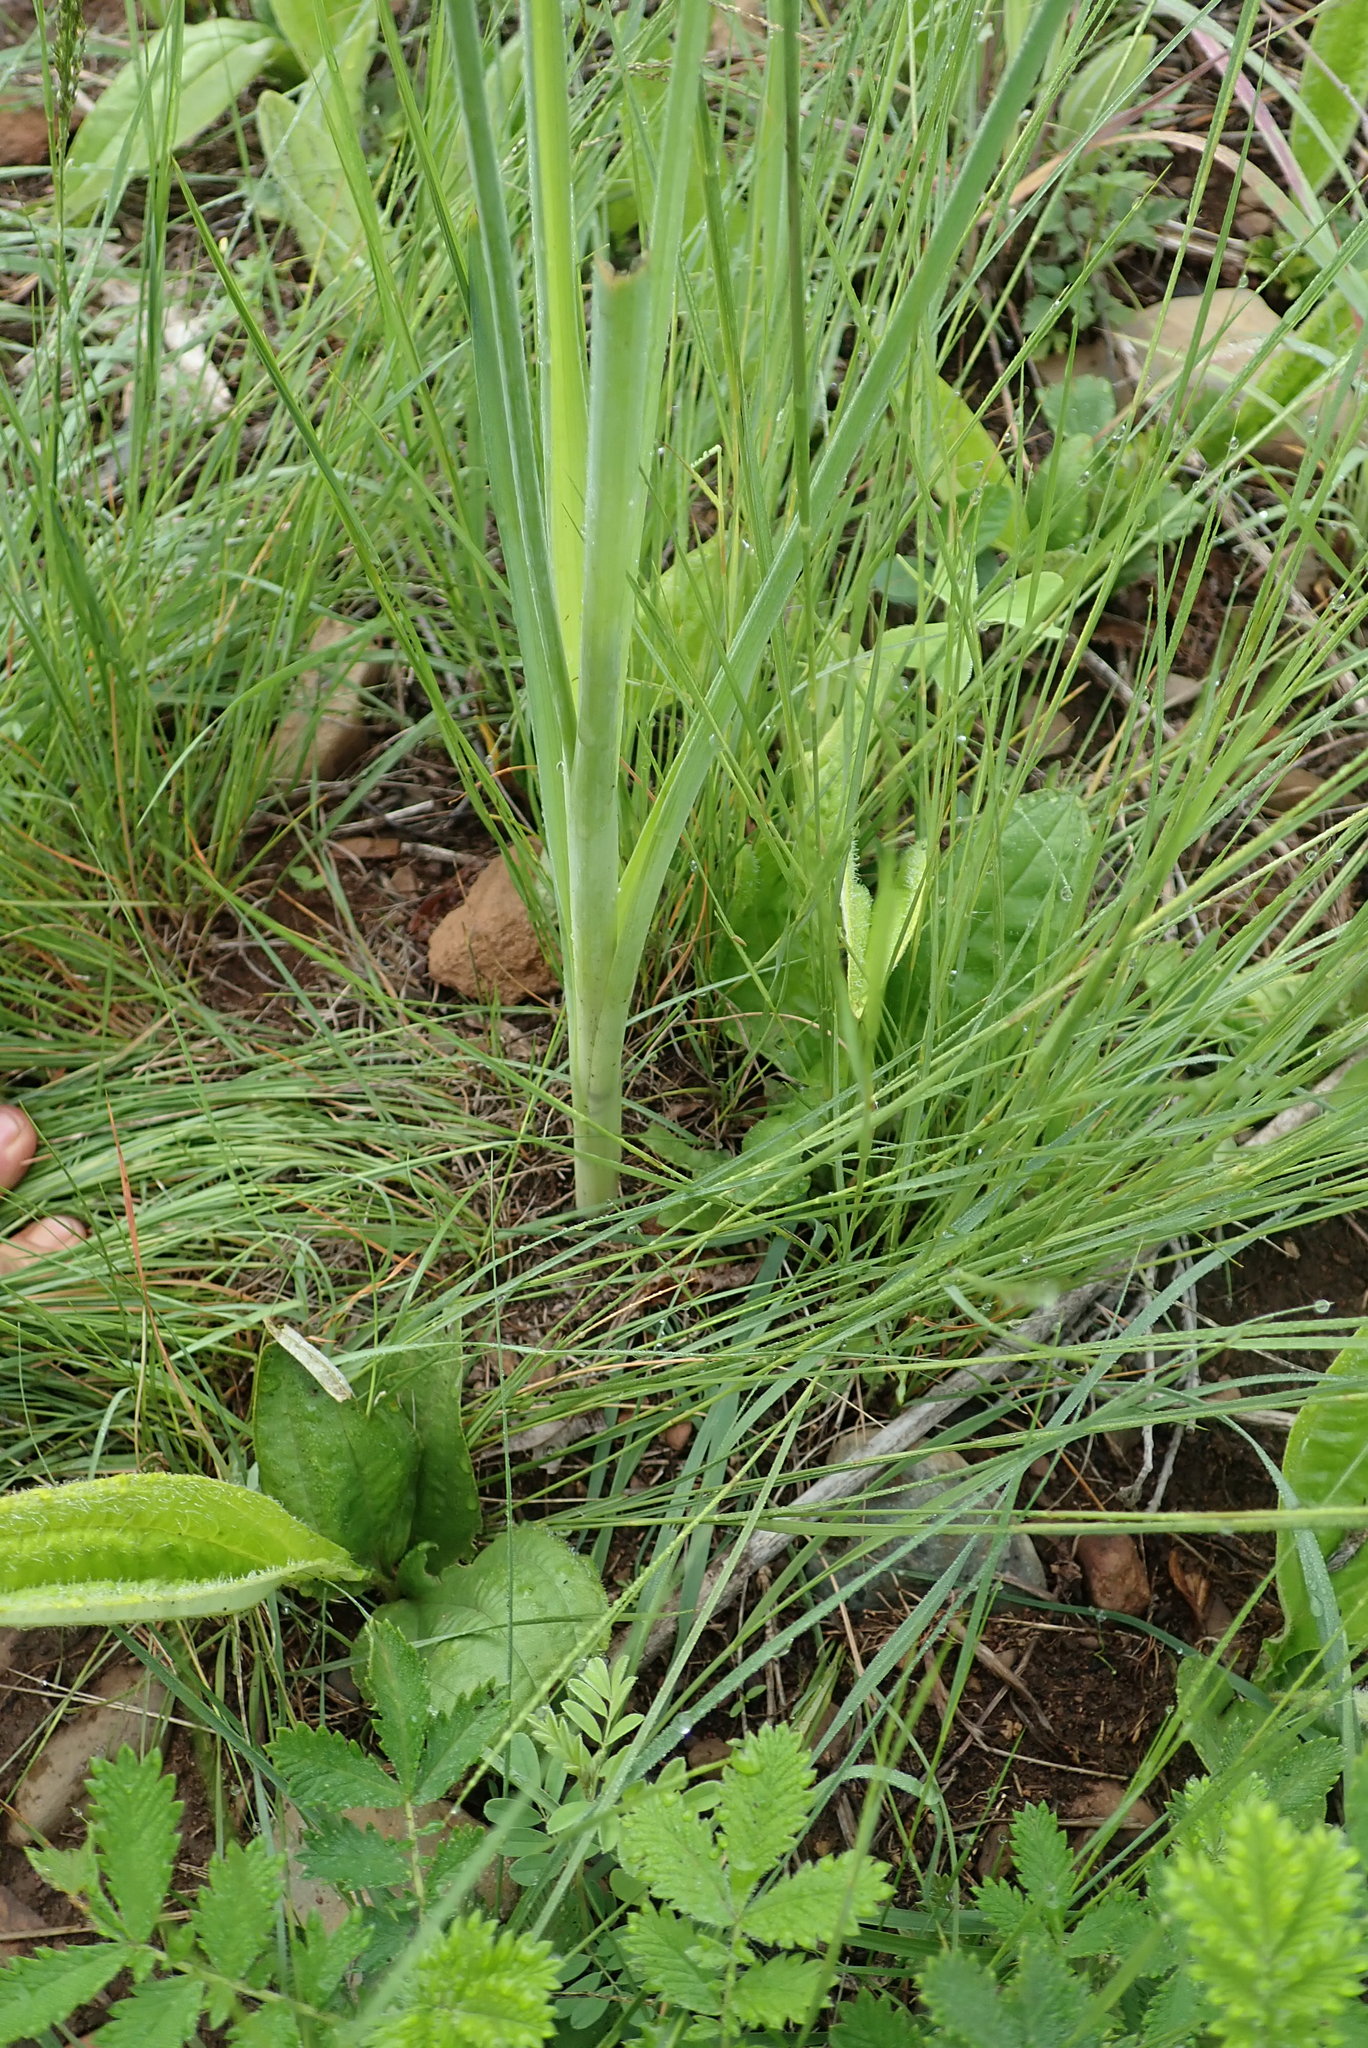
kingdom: Plantae
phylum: Tracheophyta
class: Liliopsida
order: Asparagales
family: Asparagaceae
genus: Dipcadi
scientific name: Dipcadi gracillimum
